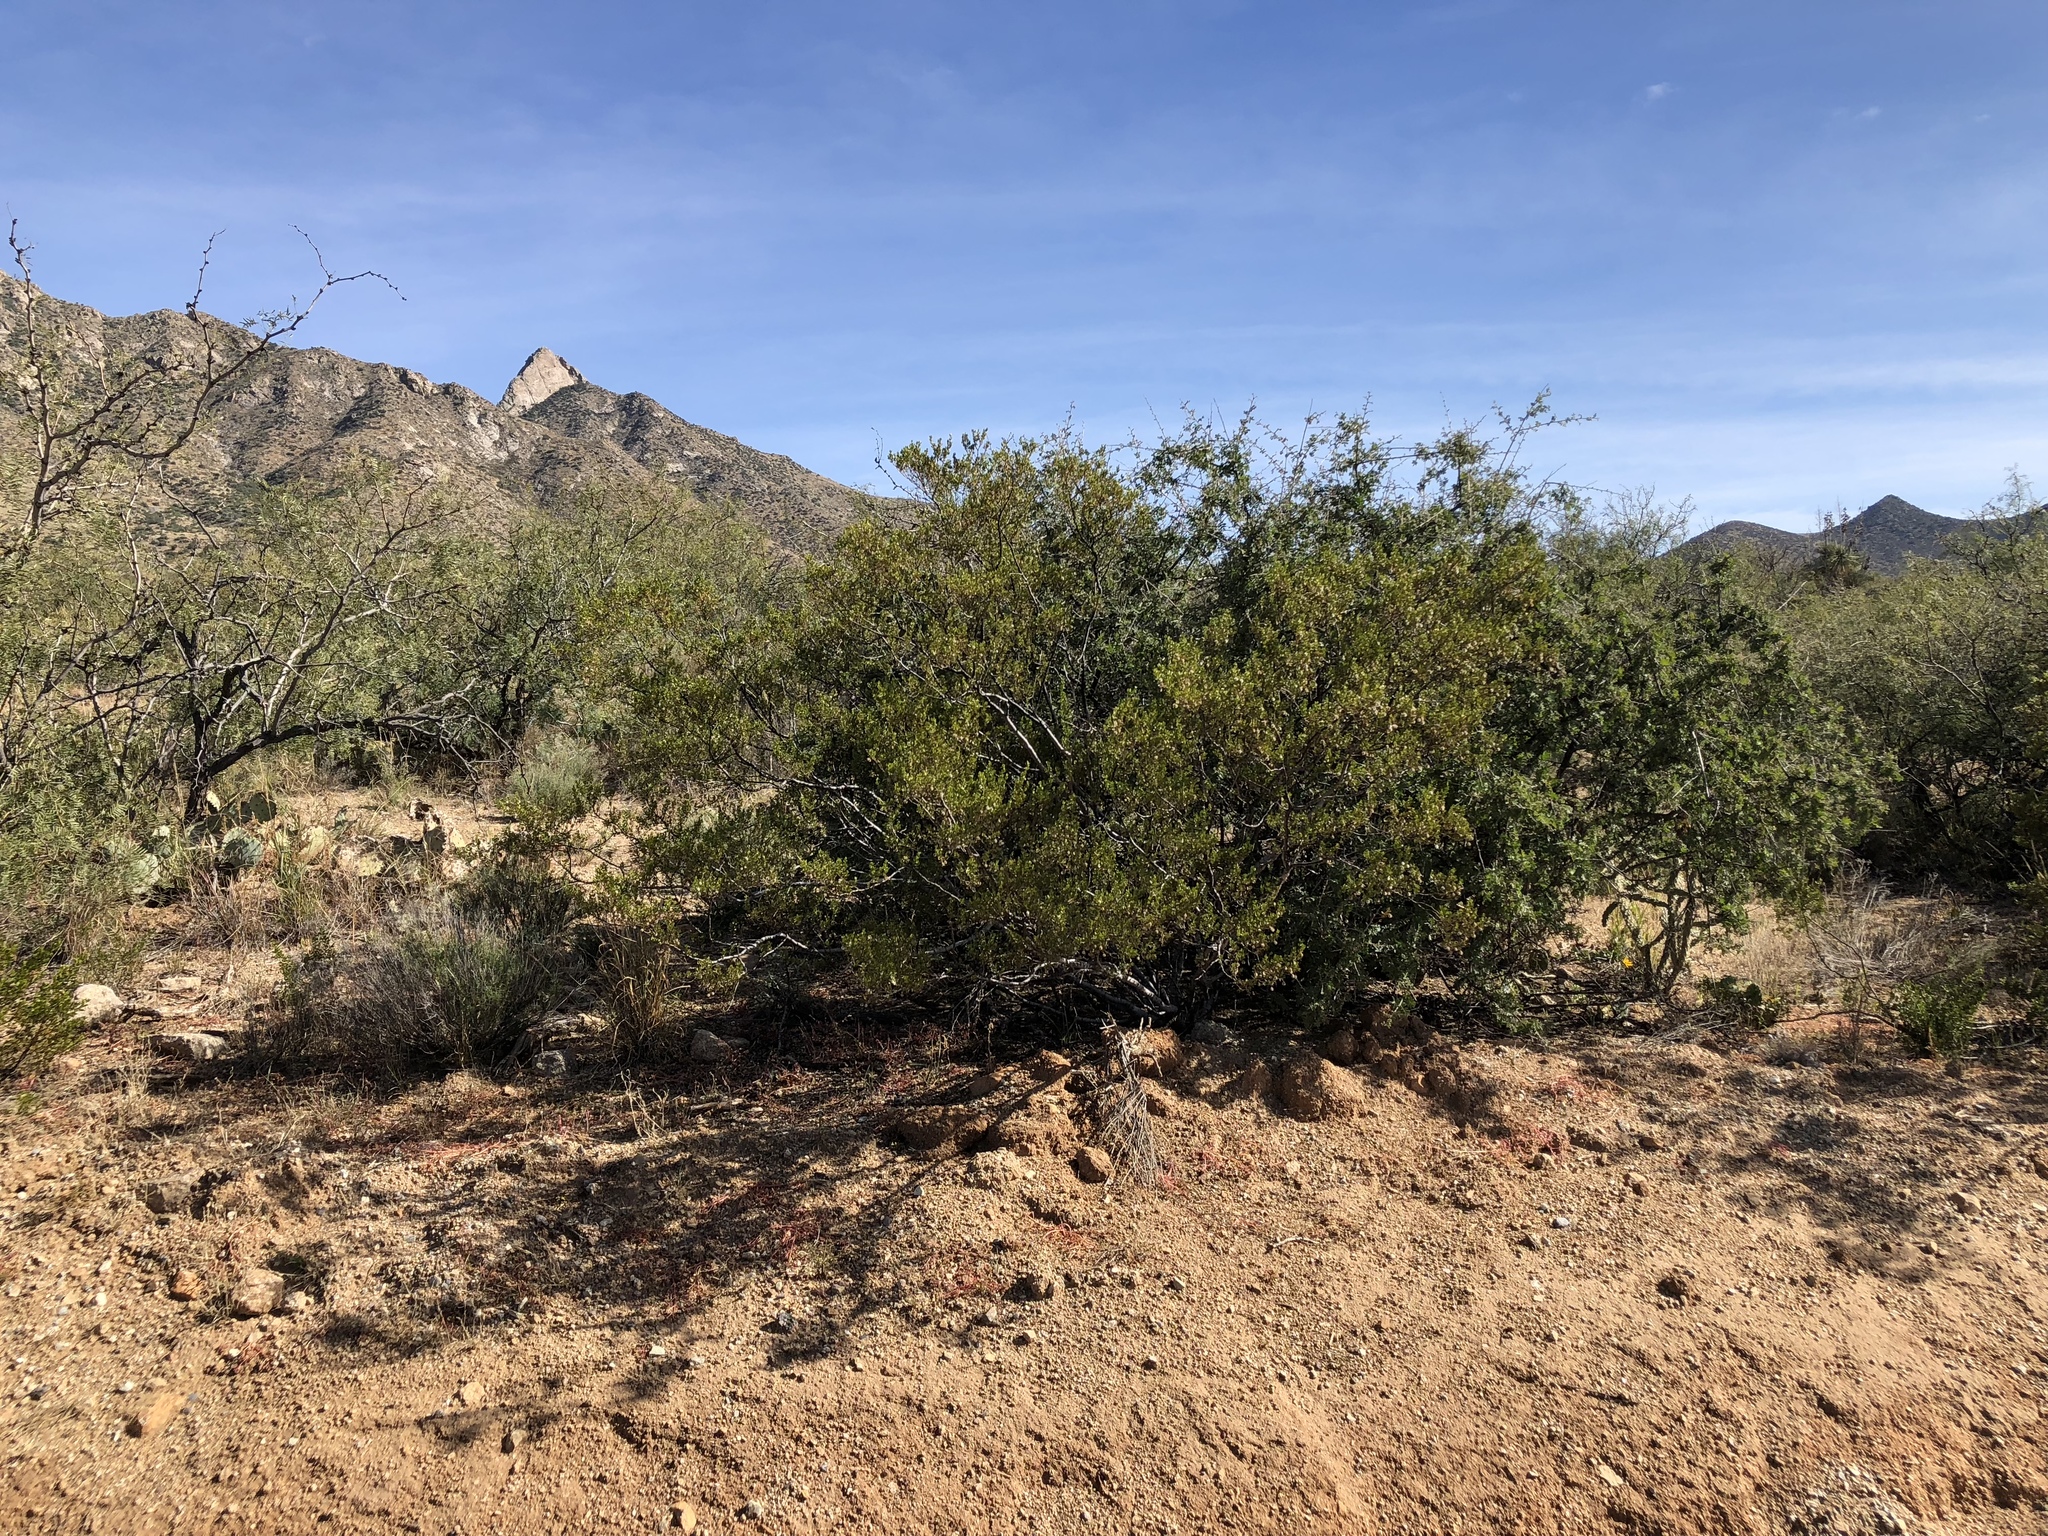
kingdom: Plantae
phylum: Tracheophyta
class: Magnoliopsida
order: Zygophyllales
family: Zygophyllaceae
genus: Larrea
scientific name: Larrea tridentata
